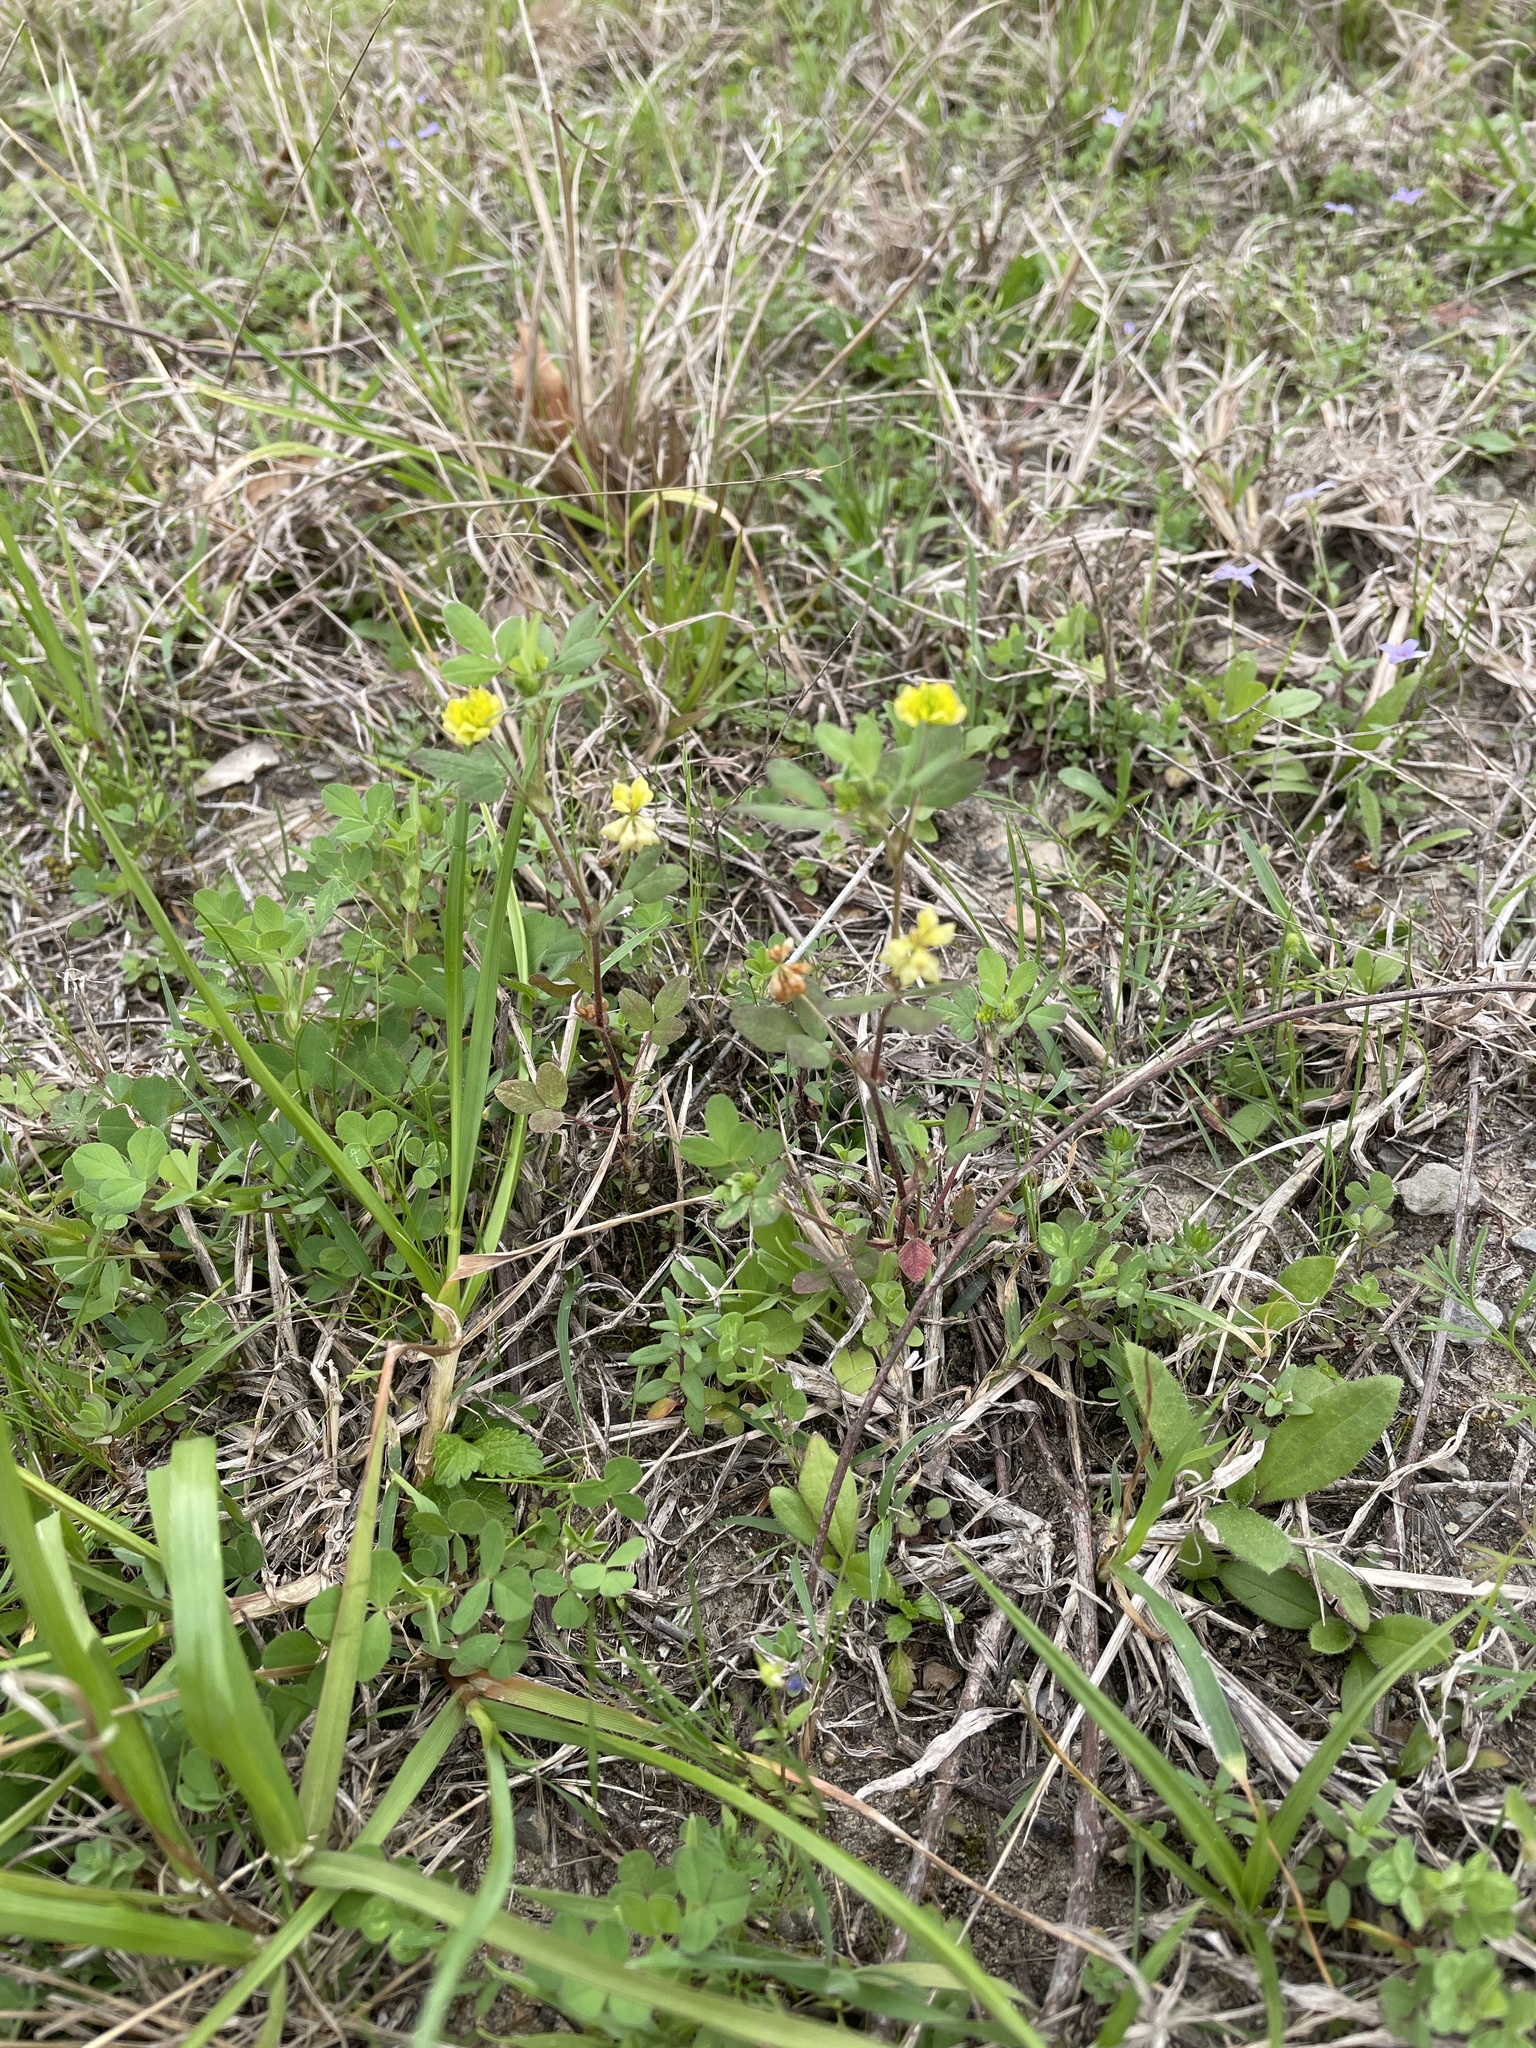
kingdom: Plantae
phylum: Tracheophyta
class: Magnoliopsida
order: Fabales
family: Fabaceae
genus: Trifolium
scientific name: Trifolium campestre
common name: Field clover
